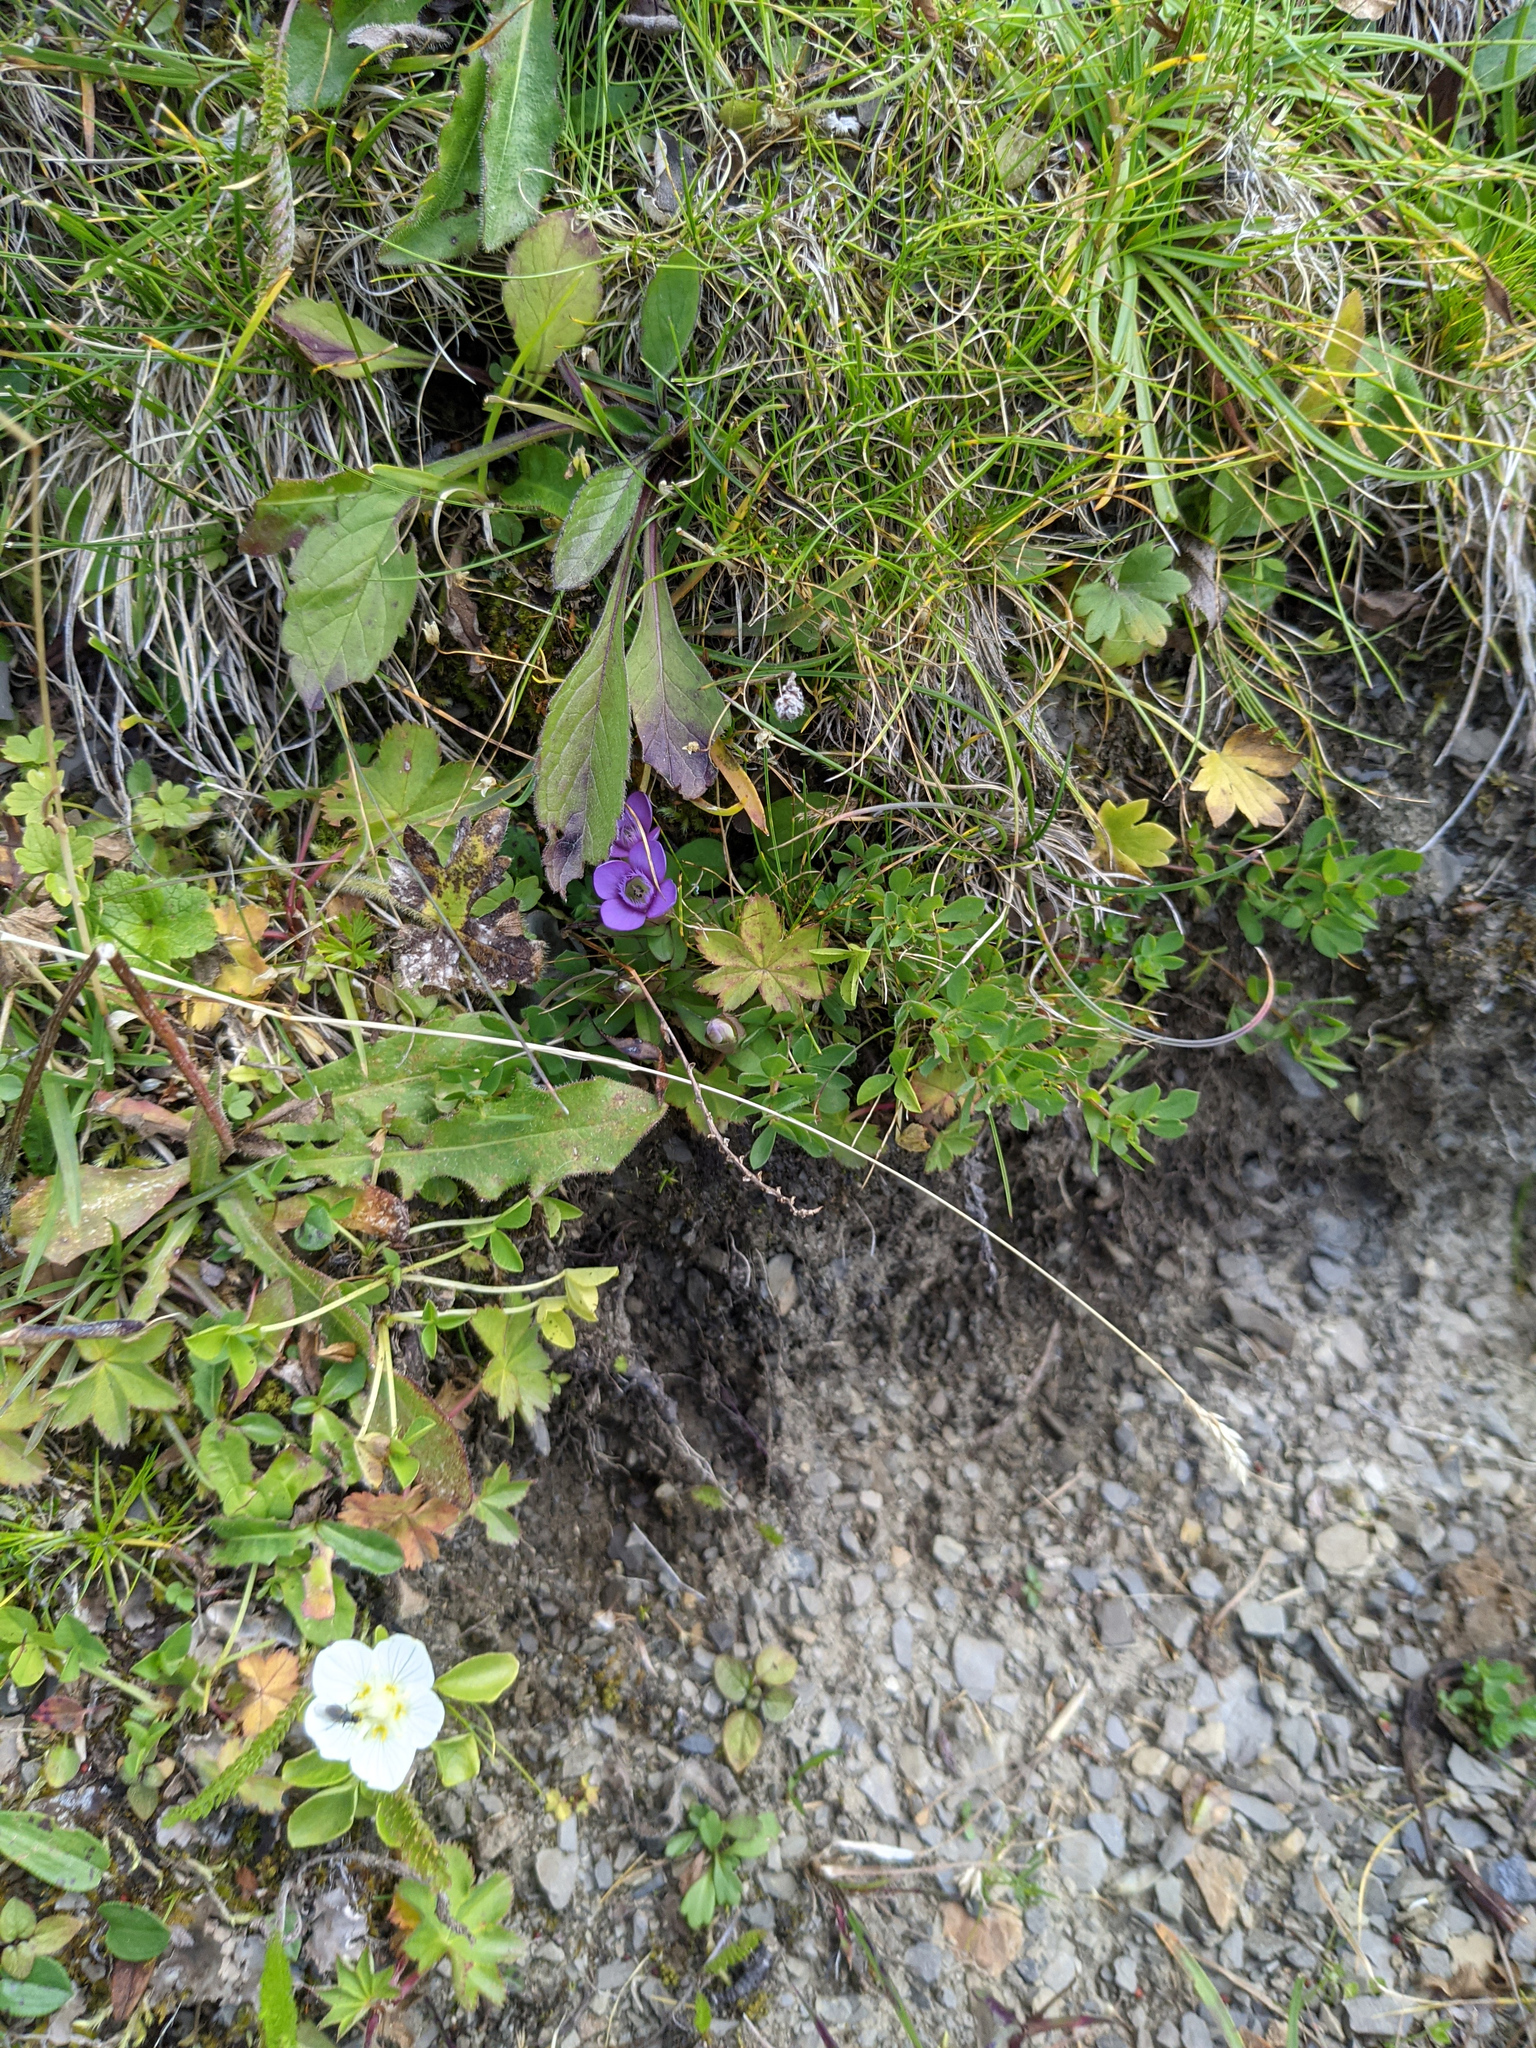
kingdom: Plantae
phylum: Tracheophyta
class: Magnoliopsida
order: Gentianales
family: Gentianaceae
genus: Gentianella
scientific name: Gentianella campestris
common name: Field gentian
